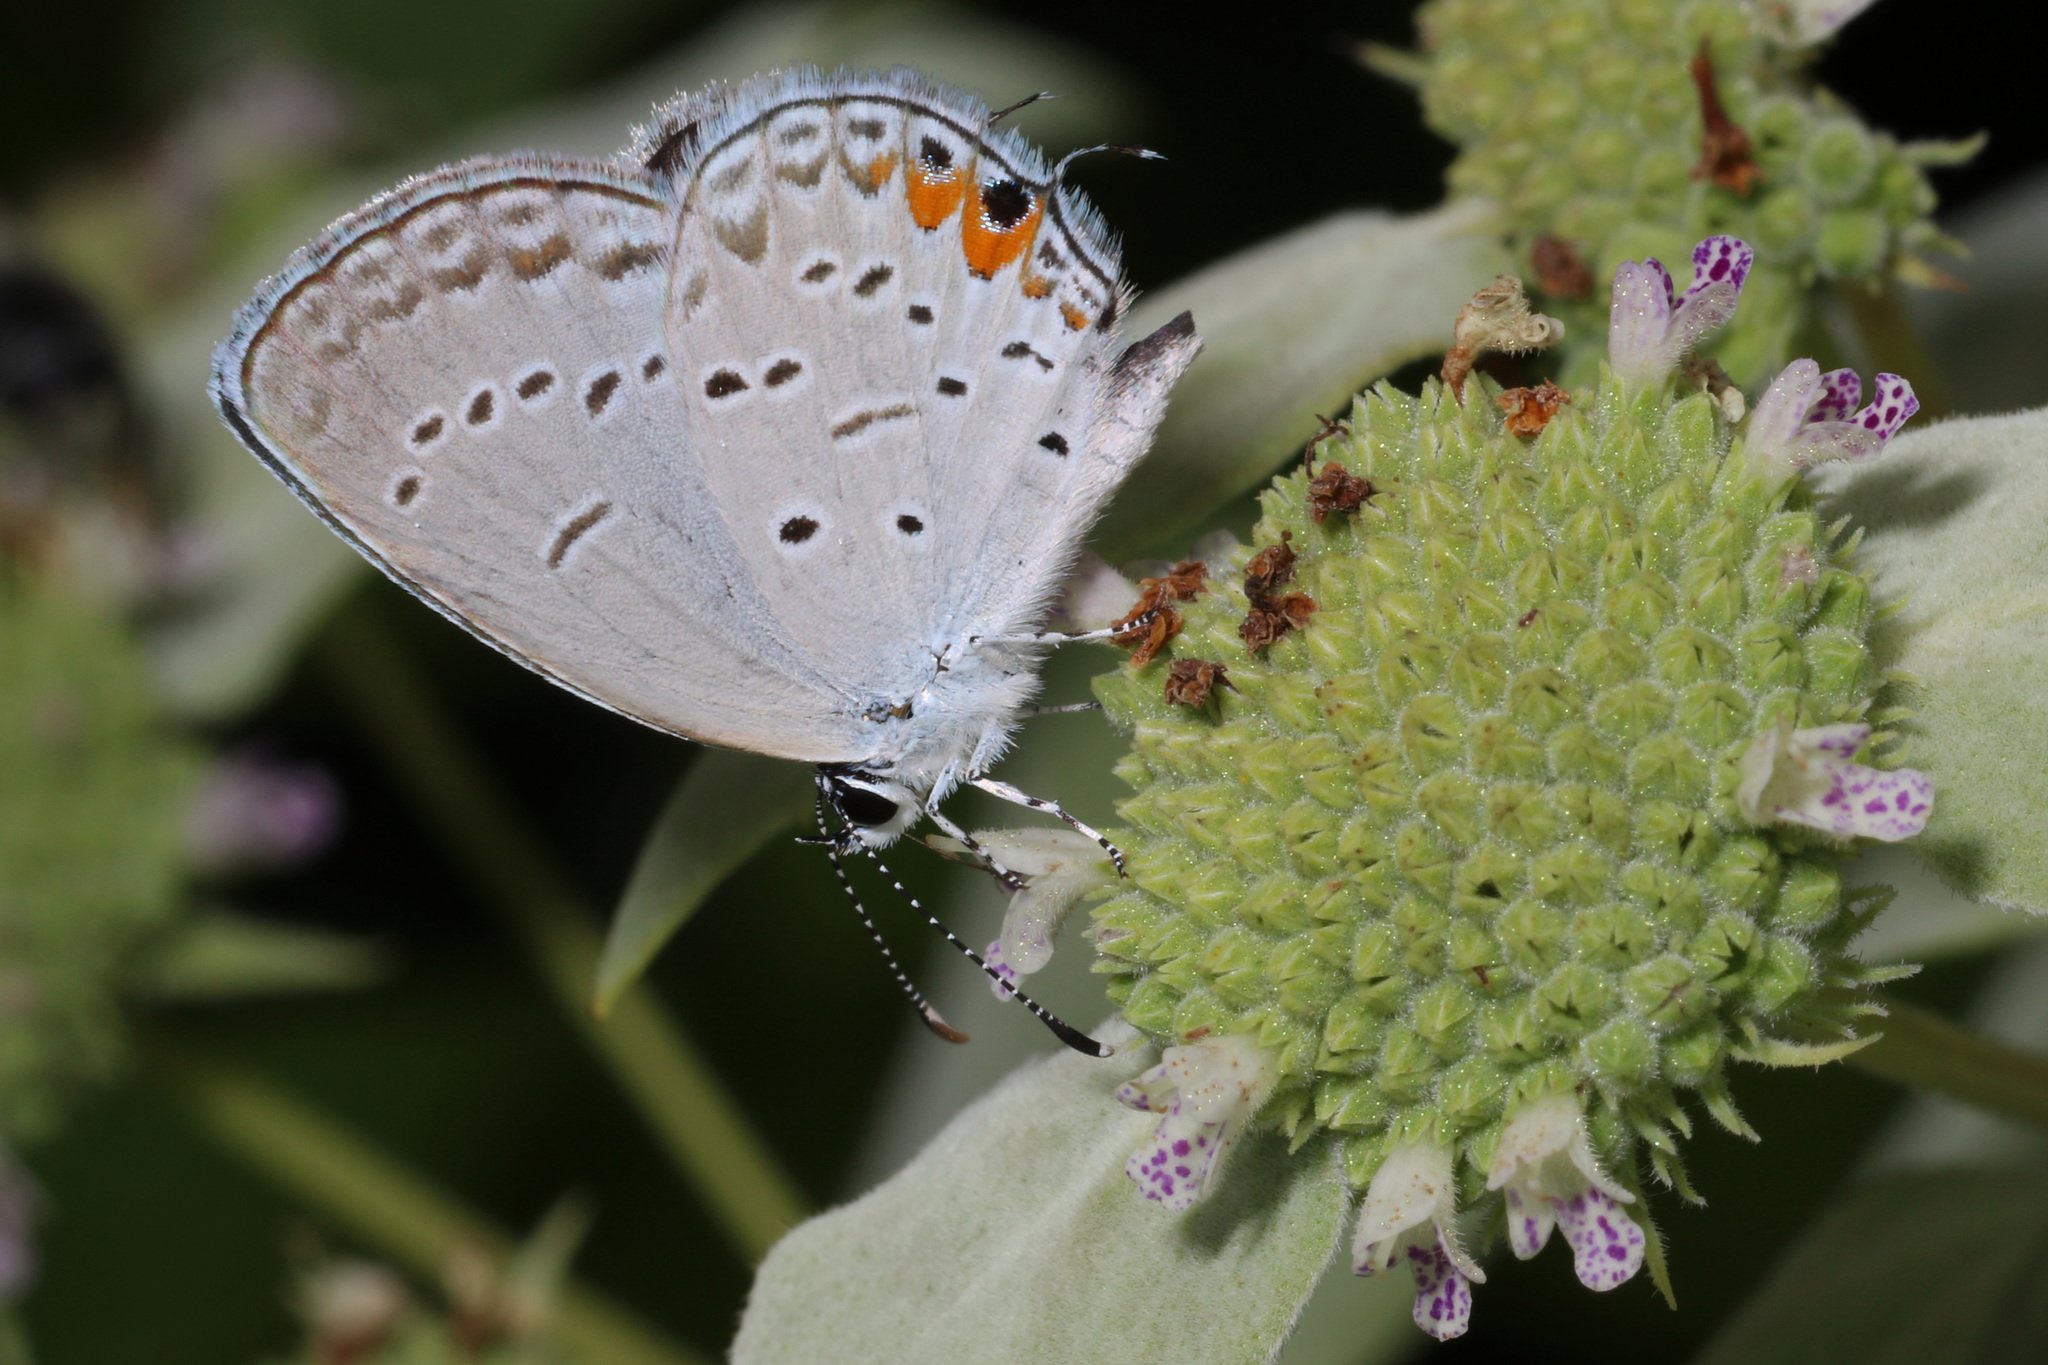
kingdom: Animalia
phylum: Arthropoda
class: Insecta
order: Lepidoptera
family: Lycaenidae
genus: Elkalyce
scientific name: Elkalyce comyntas
